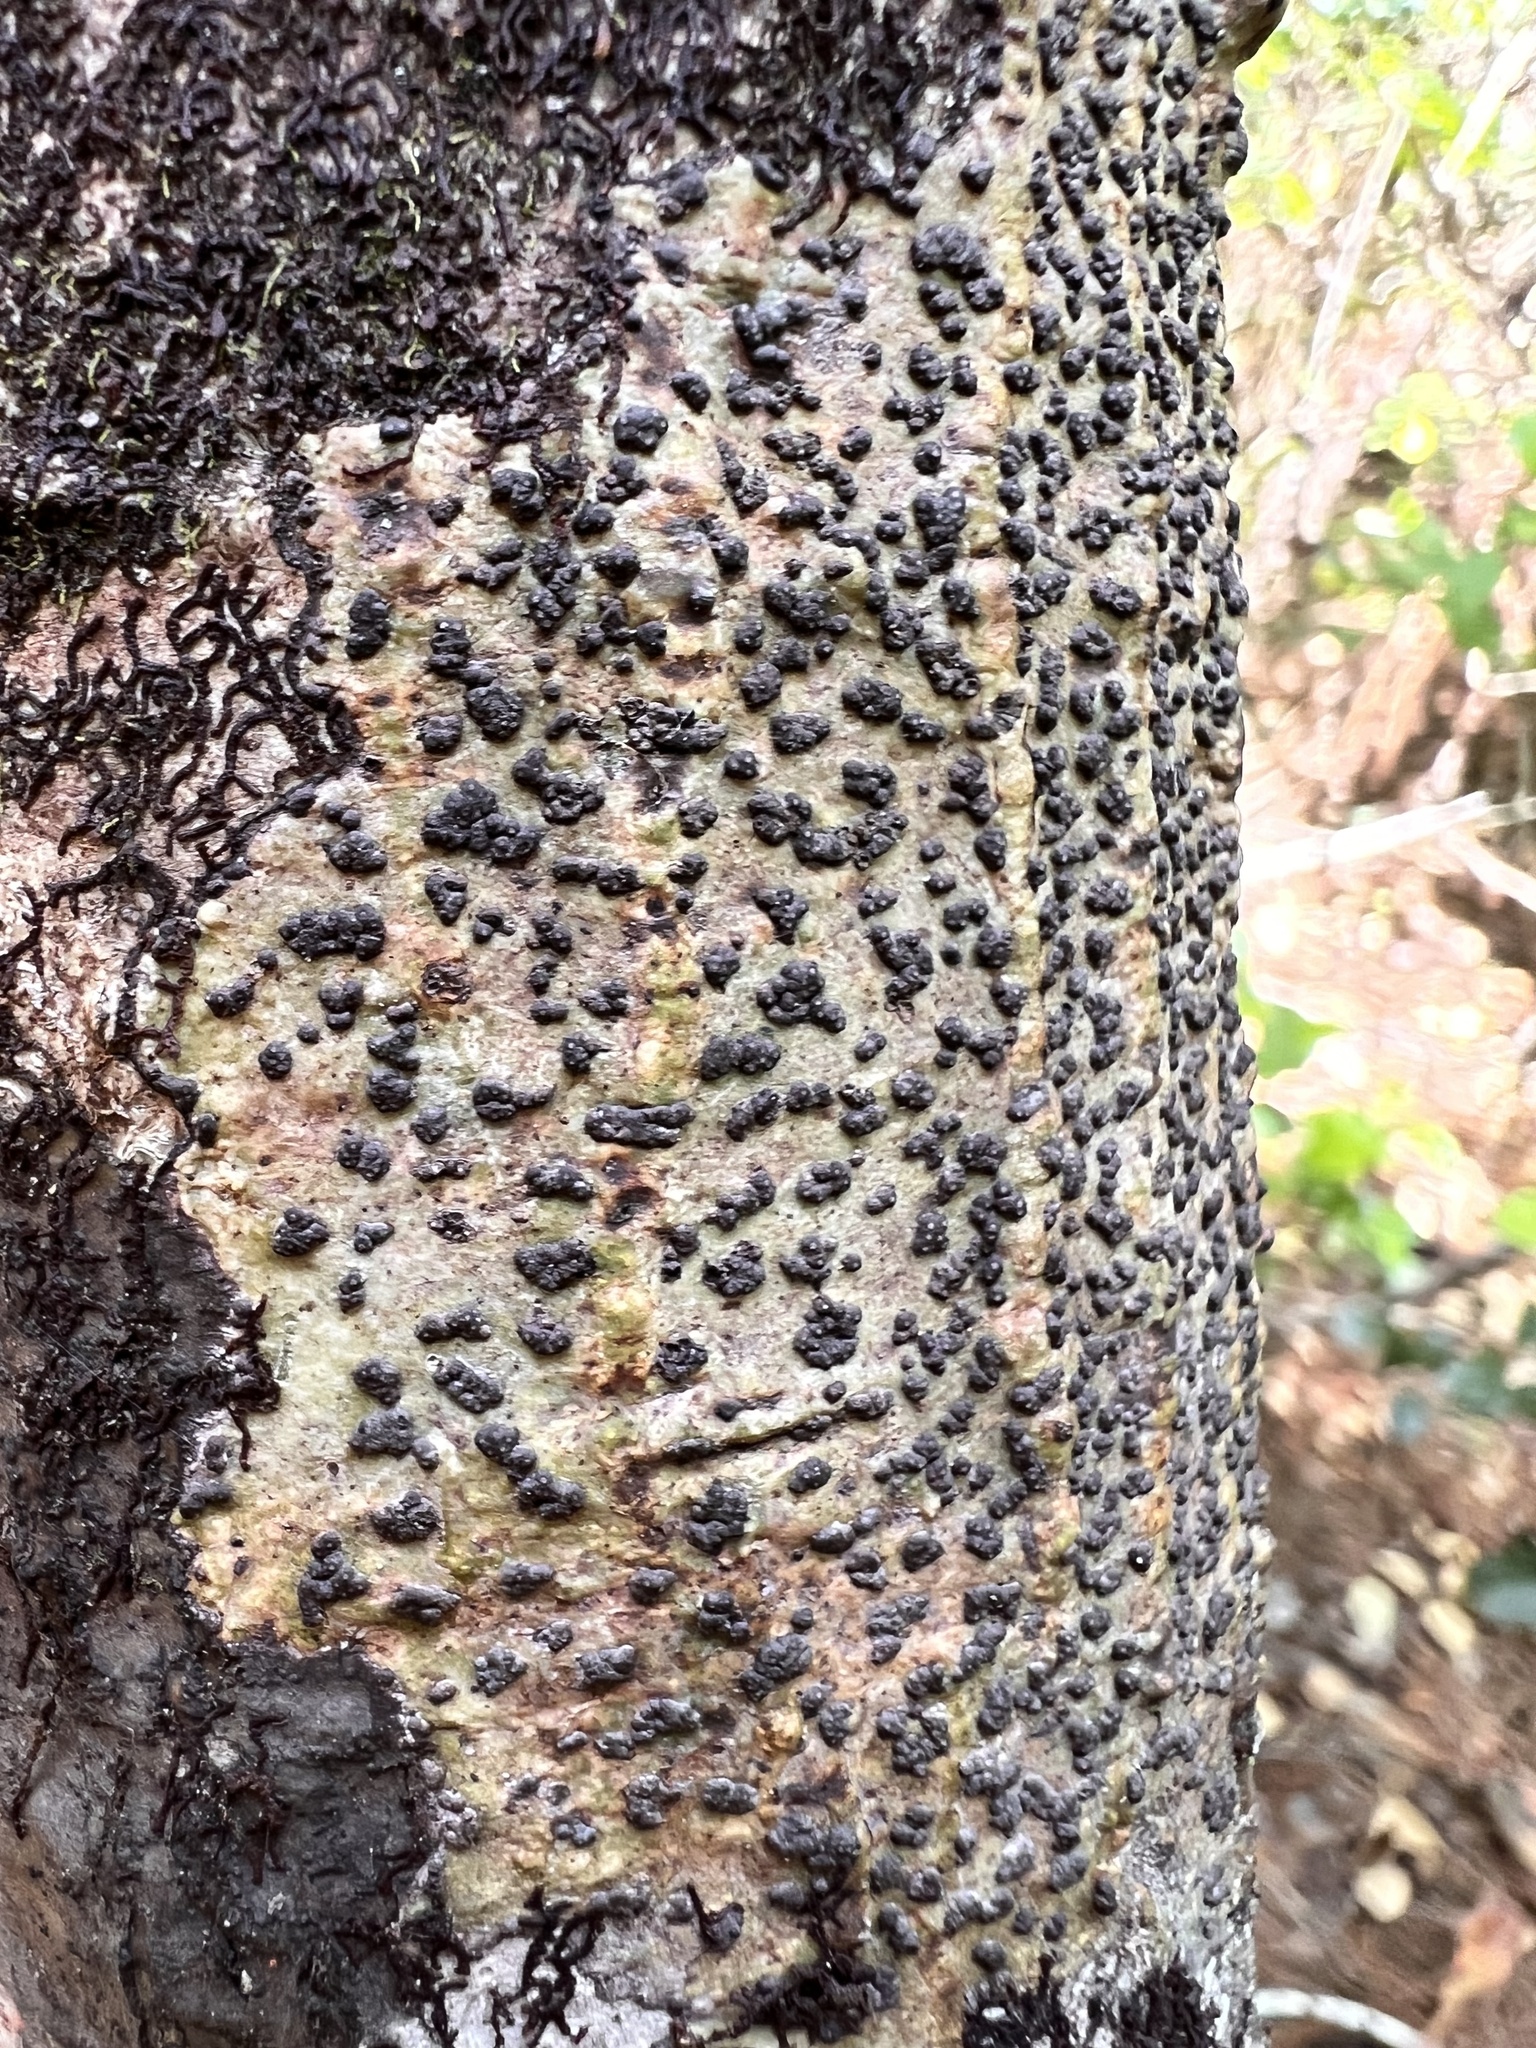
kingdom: Fungi
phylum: Ascomycota
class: Dothideomycetes
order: Trypetheliales
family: Trypetheliaceae
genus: Bathelium
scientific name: Bathelium carolinianum
